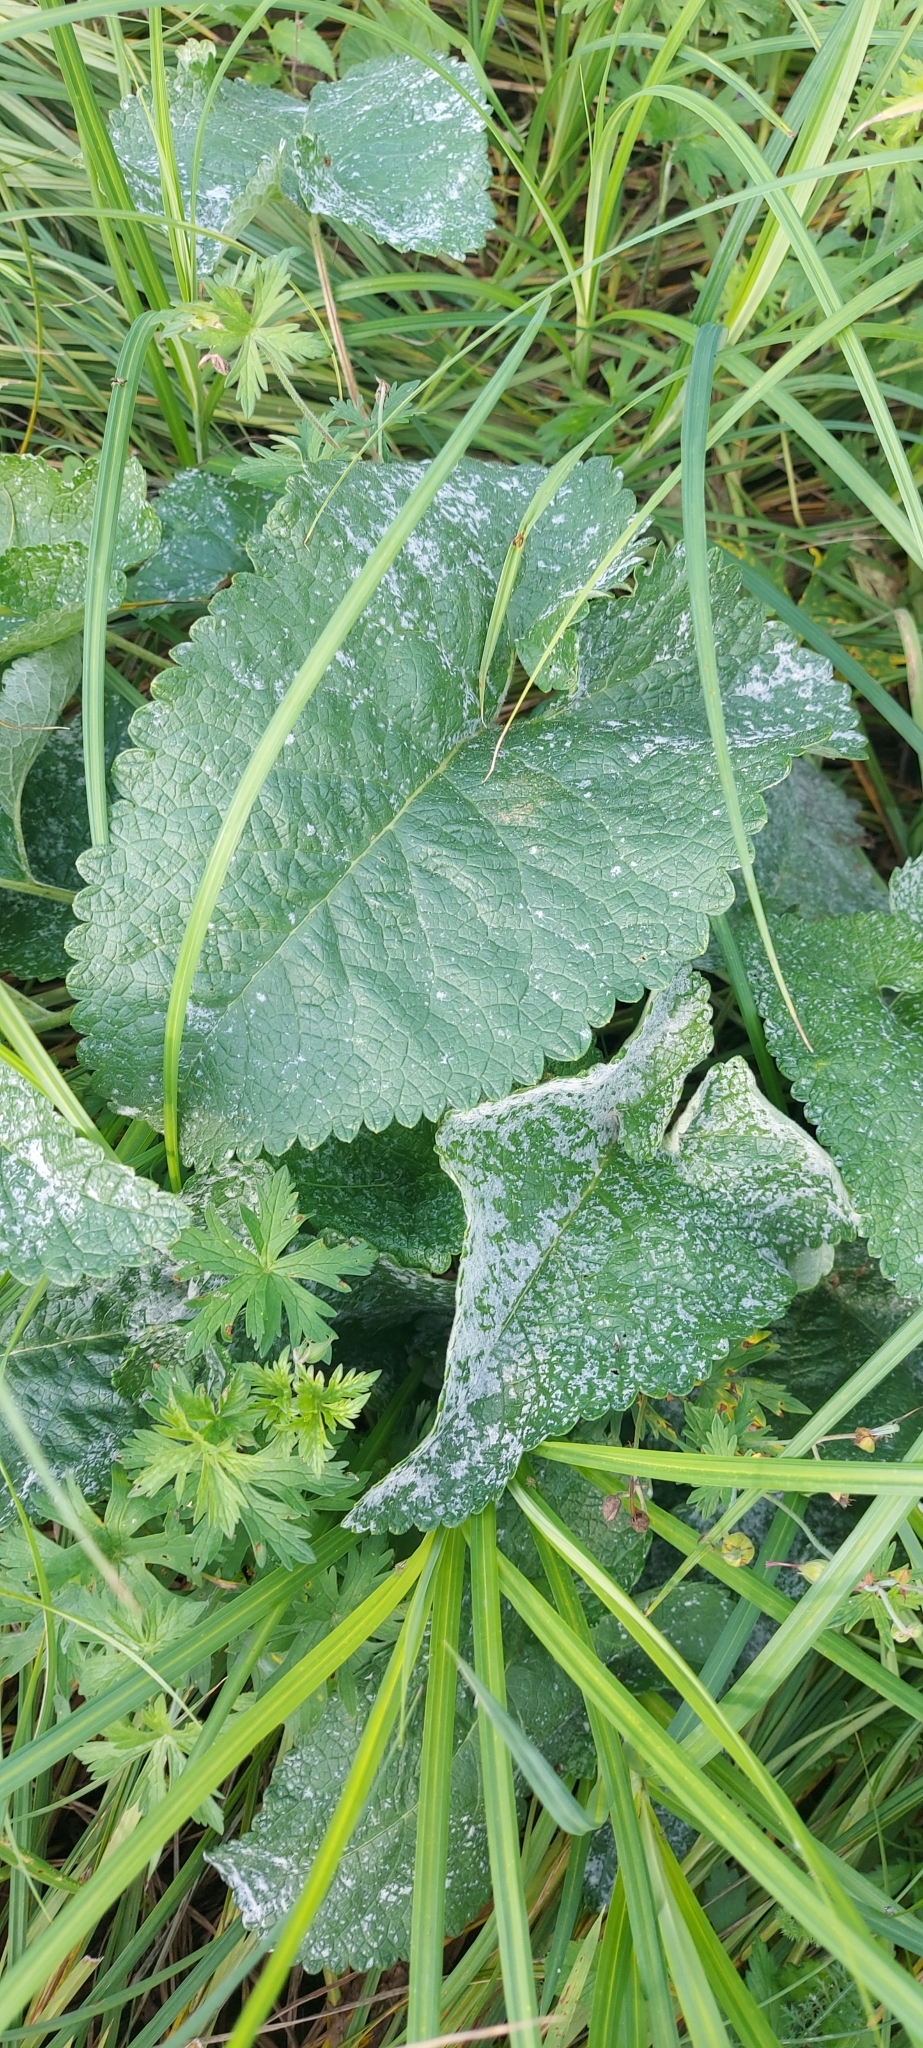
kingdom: Plantae
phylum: Tracheophyta
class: Magnoliopsida
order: Lamiales
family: Lamiaceae
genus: Phlomoides
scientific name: Phlomoides tuberosa
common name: Tuberous jerusalem sage
